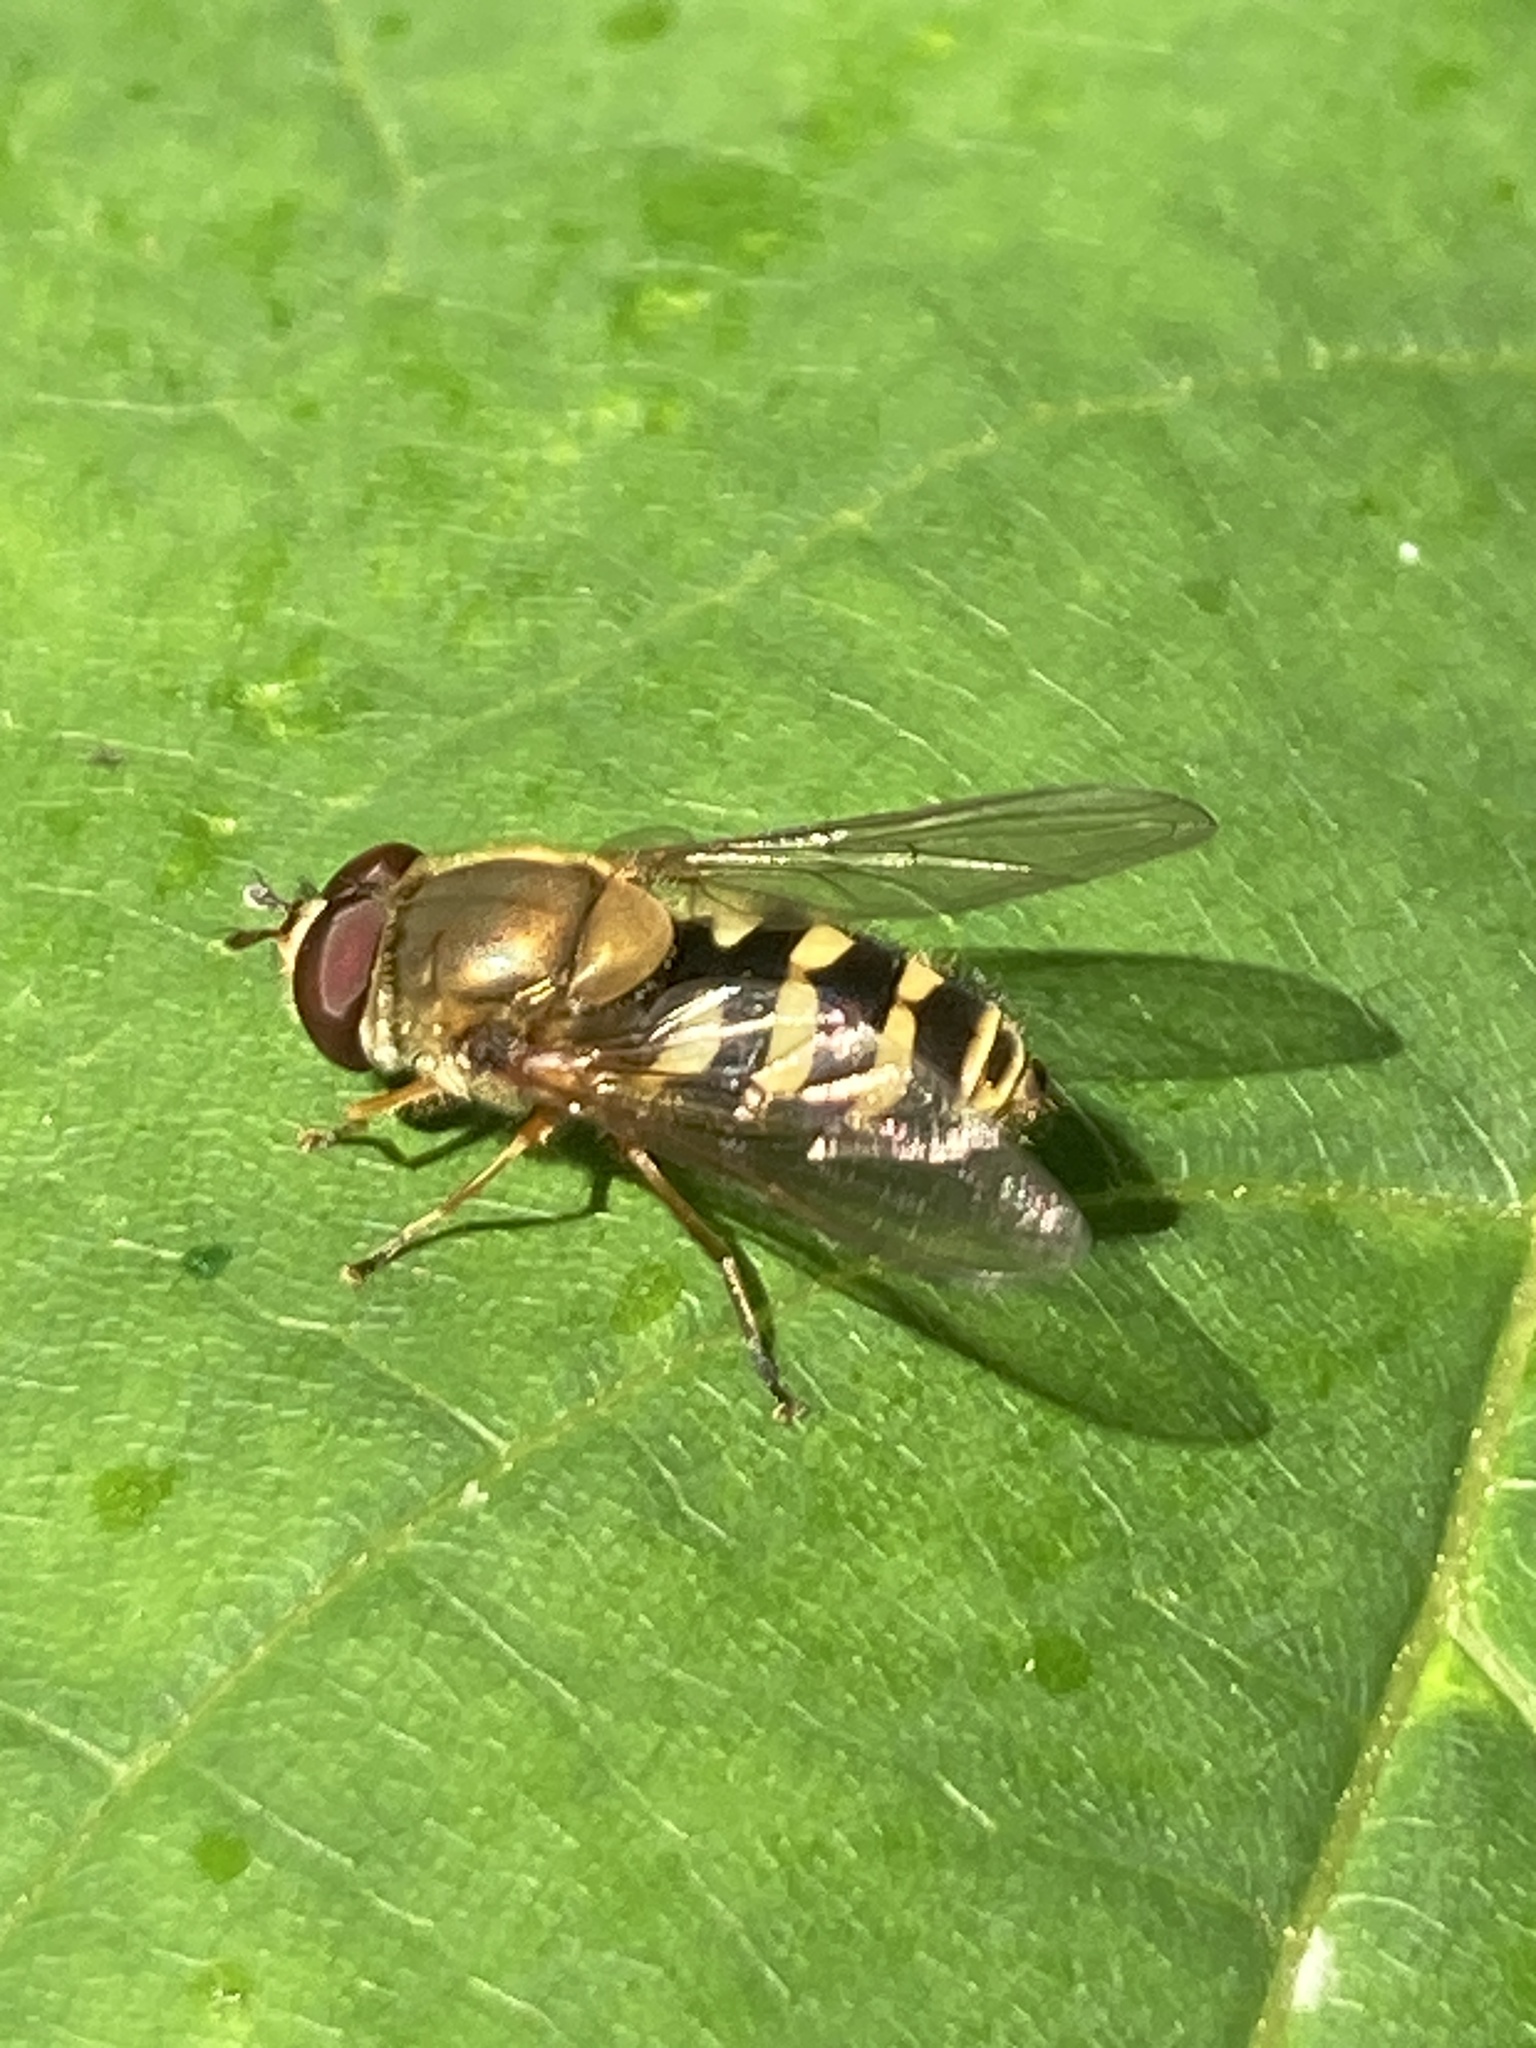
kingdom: Animalia
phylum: Arthropoda
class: Insecta
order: Diptera
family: Syrphidae
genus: Syrphus
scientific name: Syrphus
